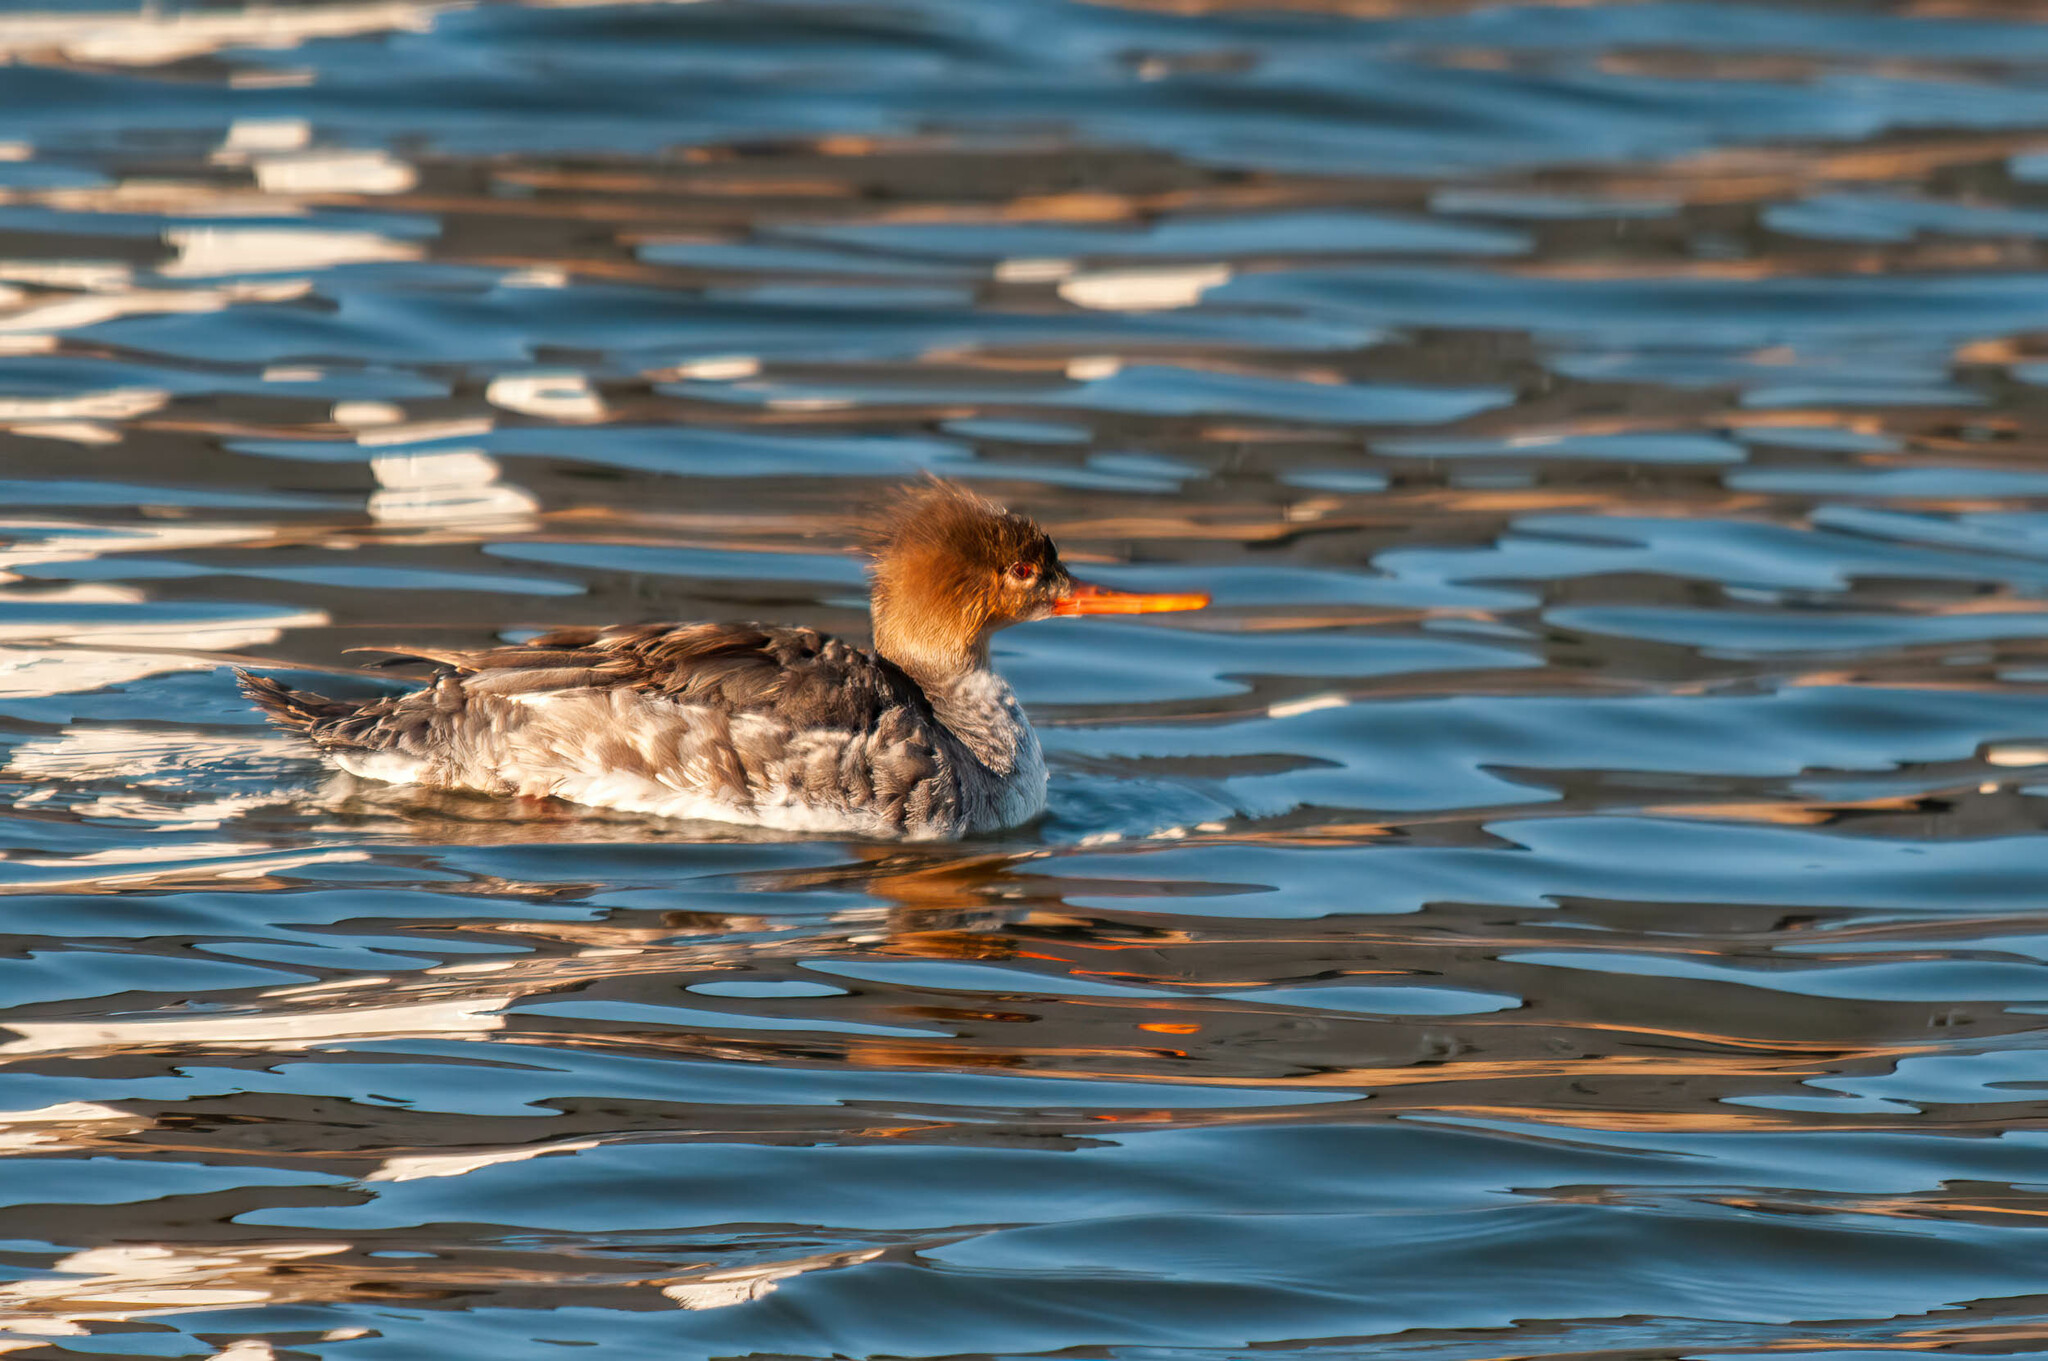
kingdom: Animalia
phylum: Chordata
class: Aves
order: Anseriformes
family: Anatidae
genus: Mergus
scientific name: Mergus serrator
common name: Red-breasted merganser
